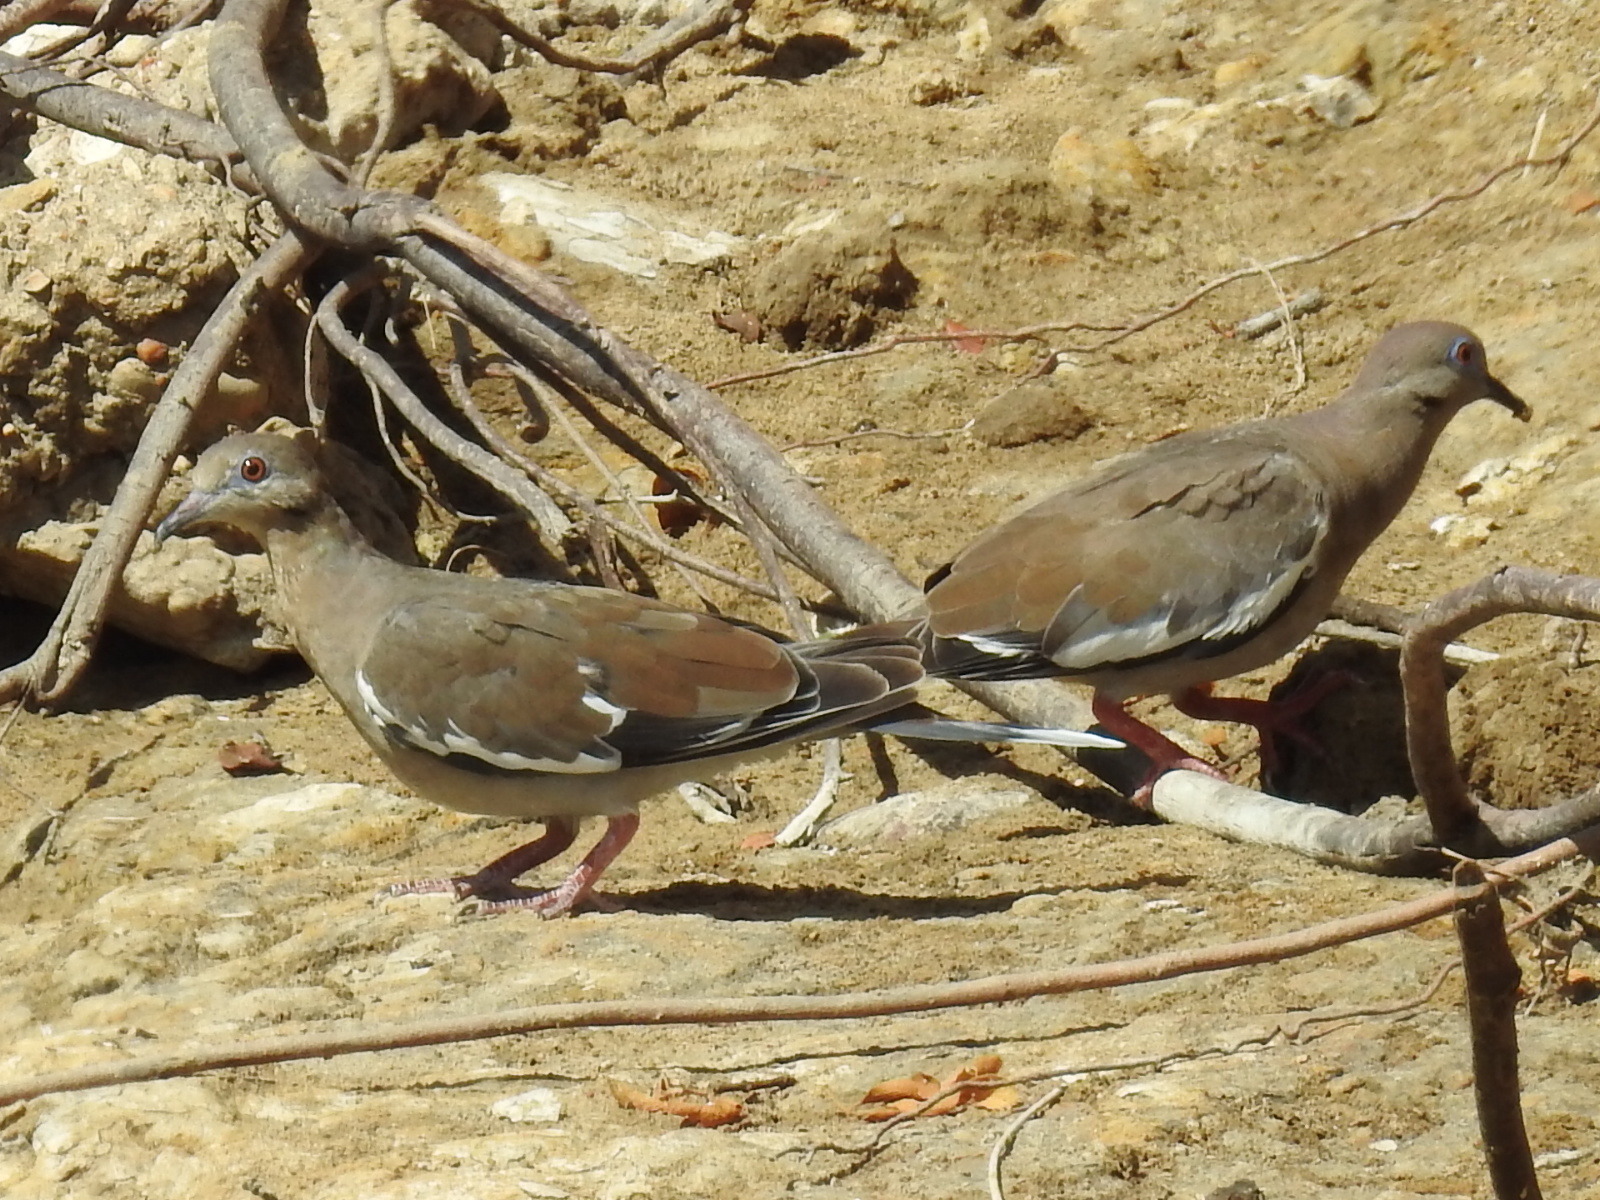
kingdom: Animalia
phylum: Chordata
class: Aves
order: Columbiformes
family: Columbidae
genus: Zenaida
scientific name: Zenaida asiatica
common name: White-winged dove
